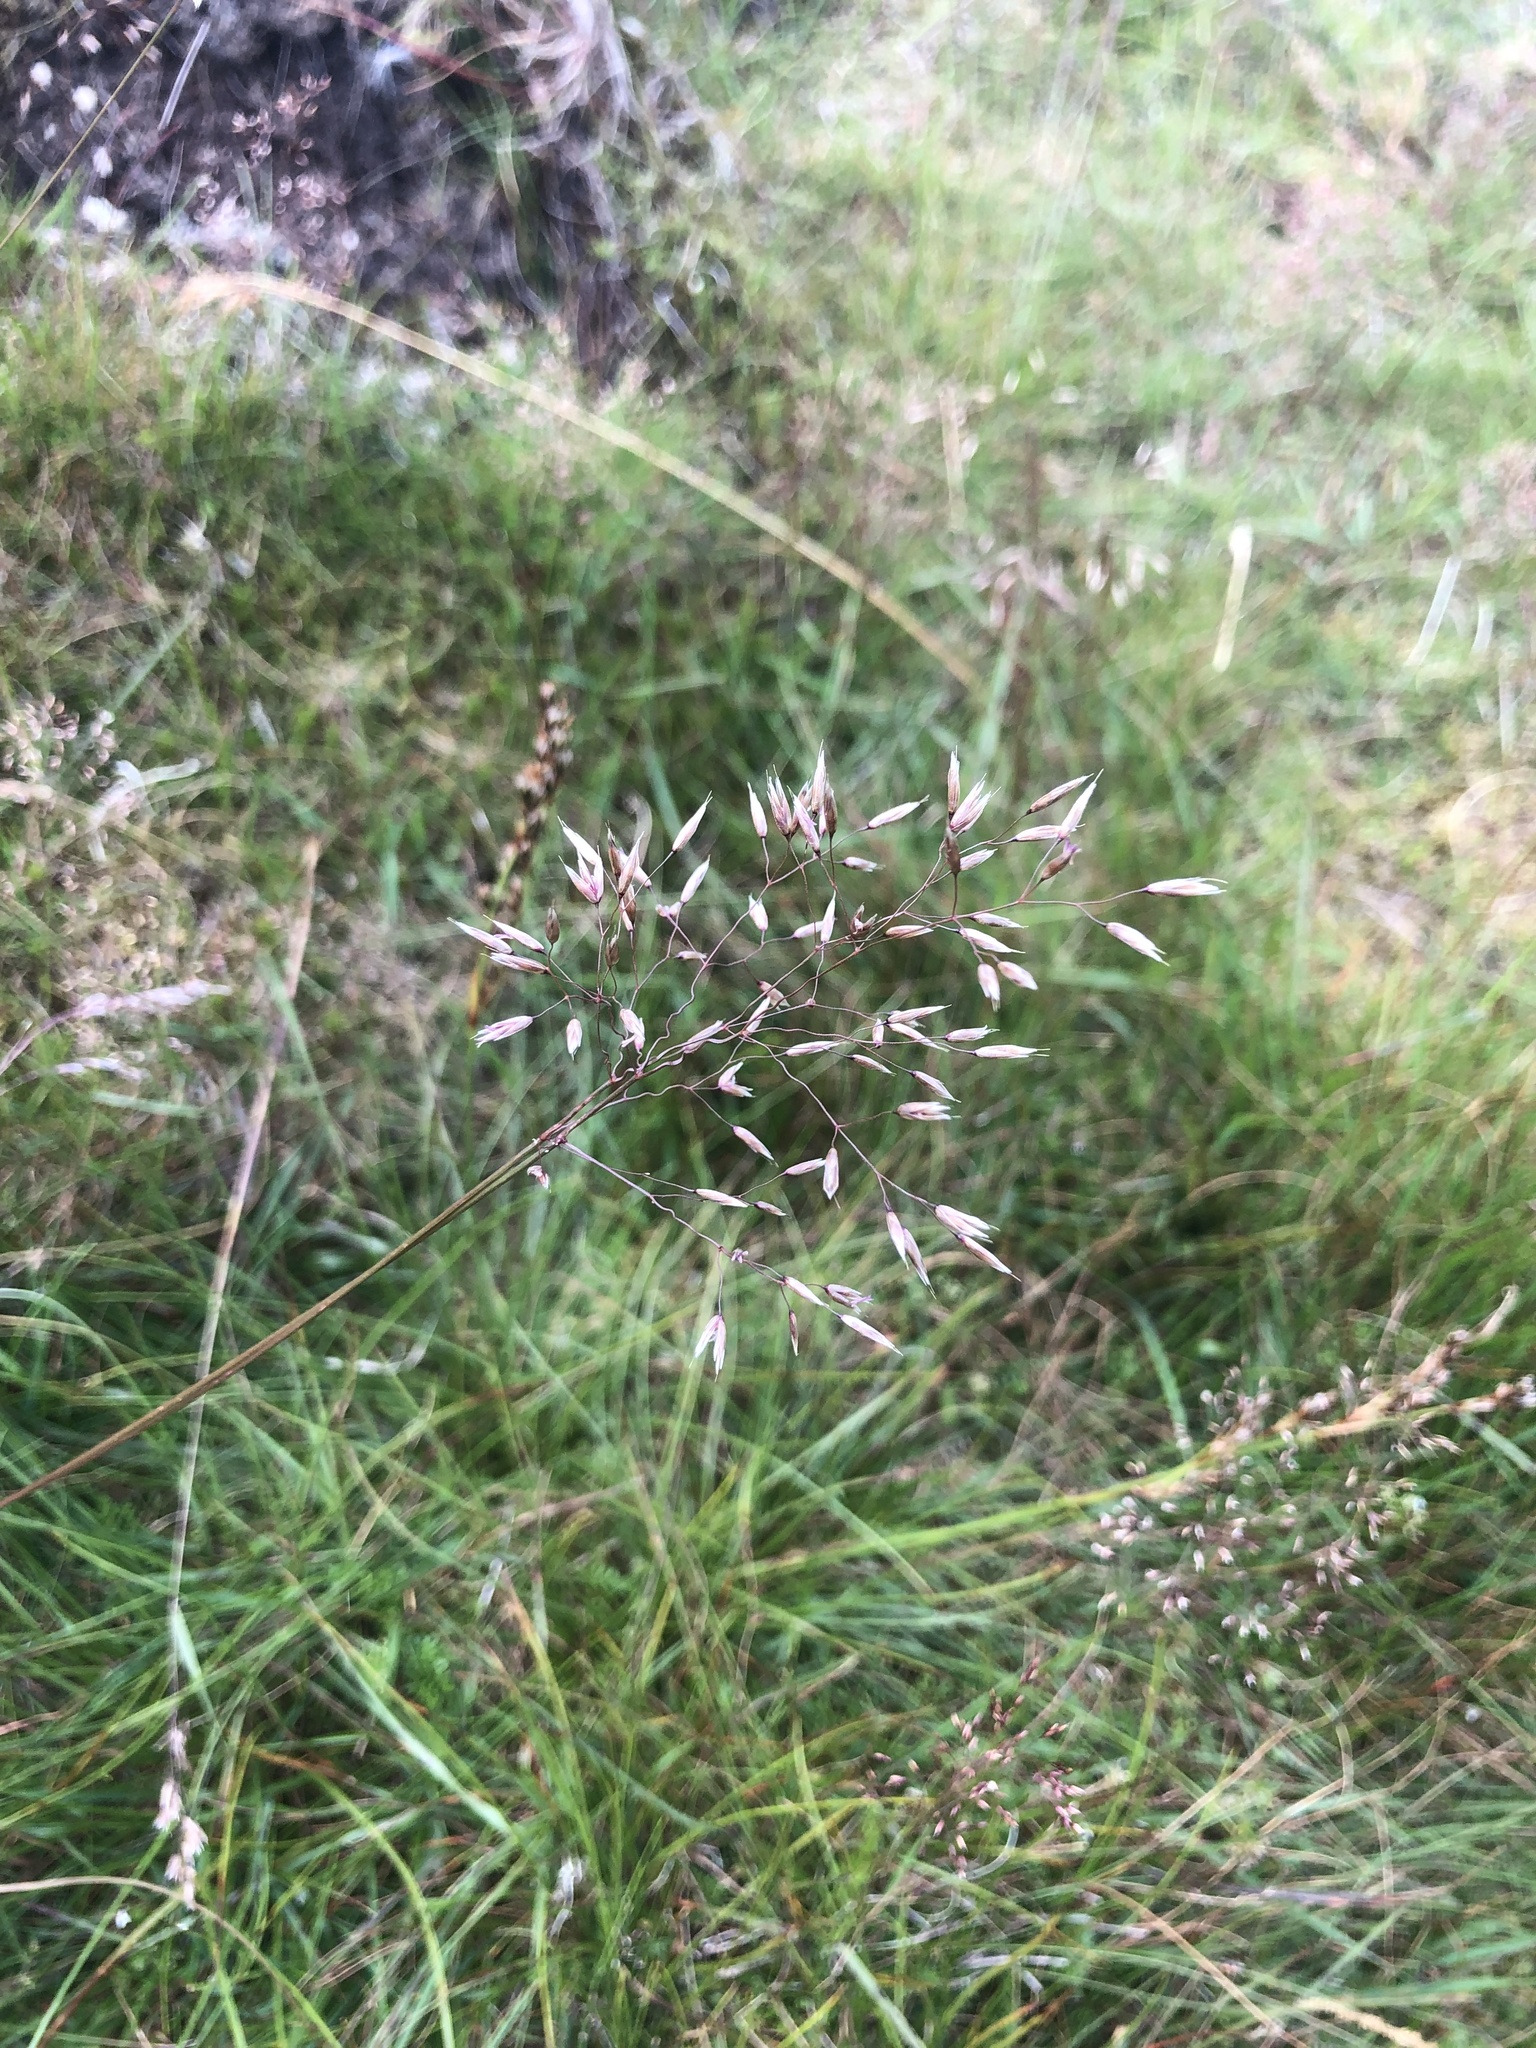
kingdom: Plantae
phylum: Tracheophyta
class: Liliopsida
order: Poales
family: Poaceae
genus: Avenella
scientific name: Avenella flexuosa
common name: Wavy hairgrass
